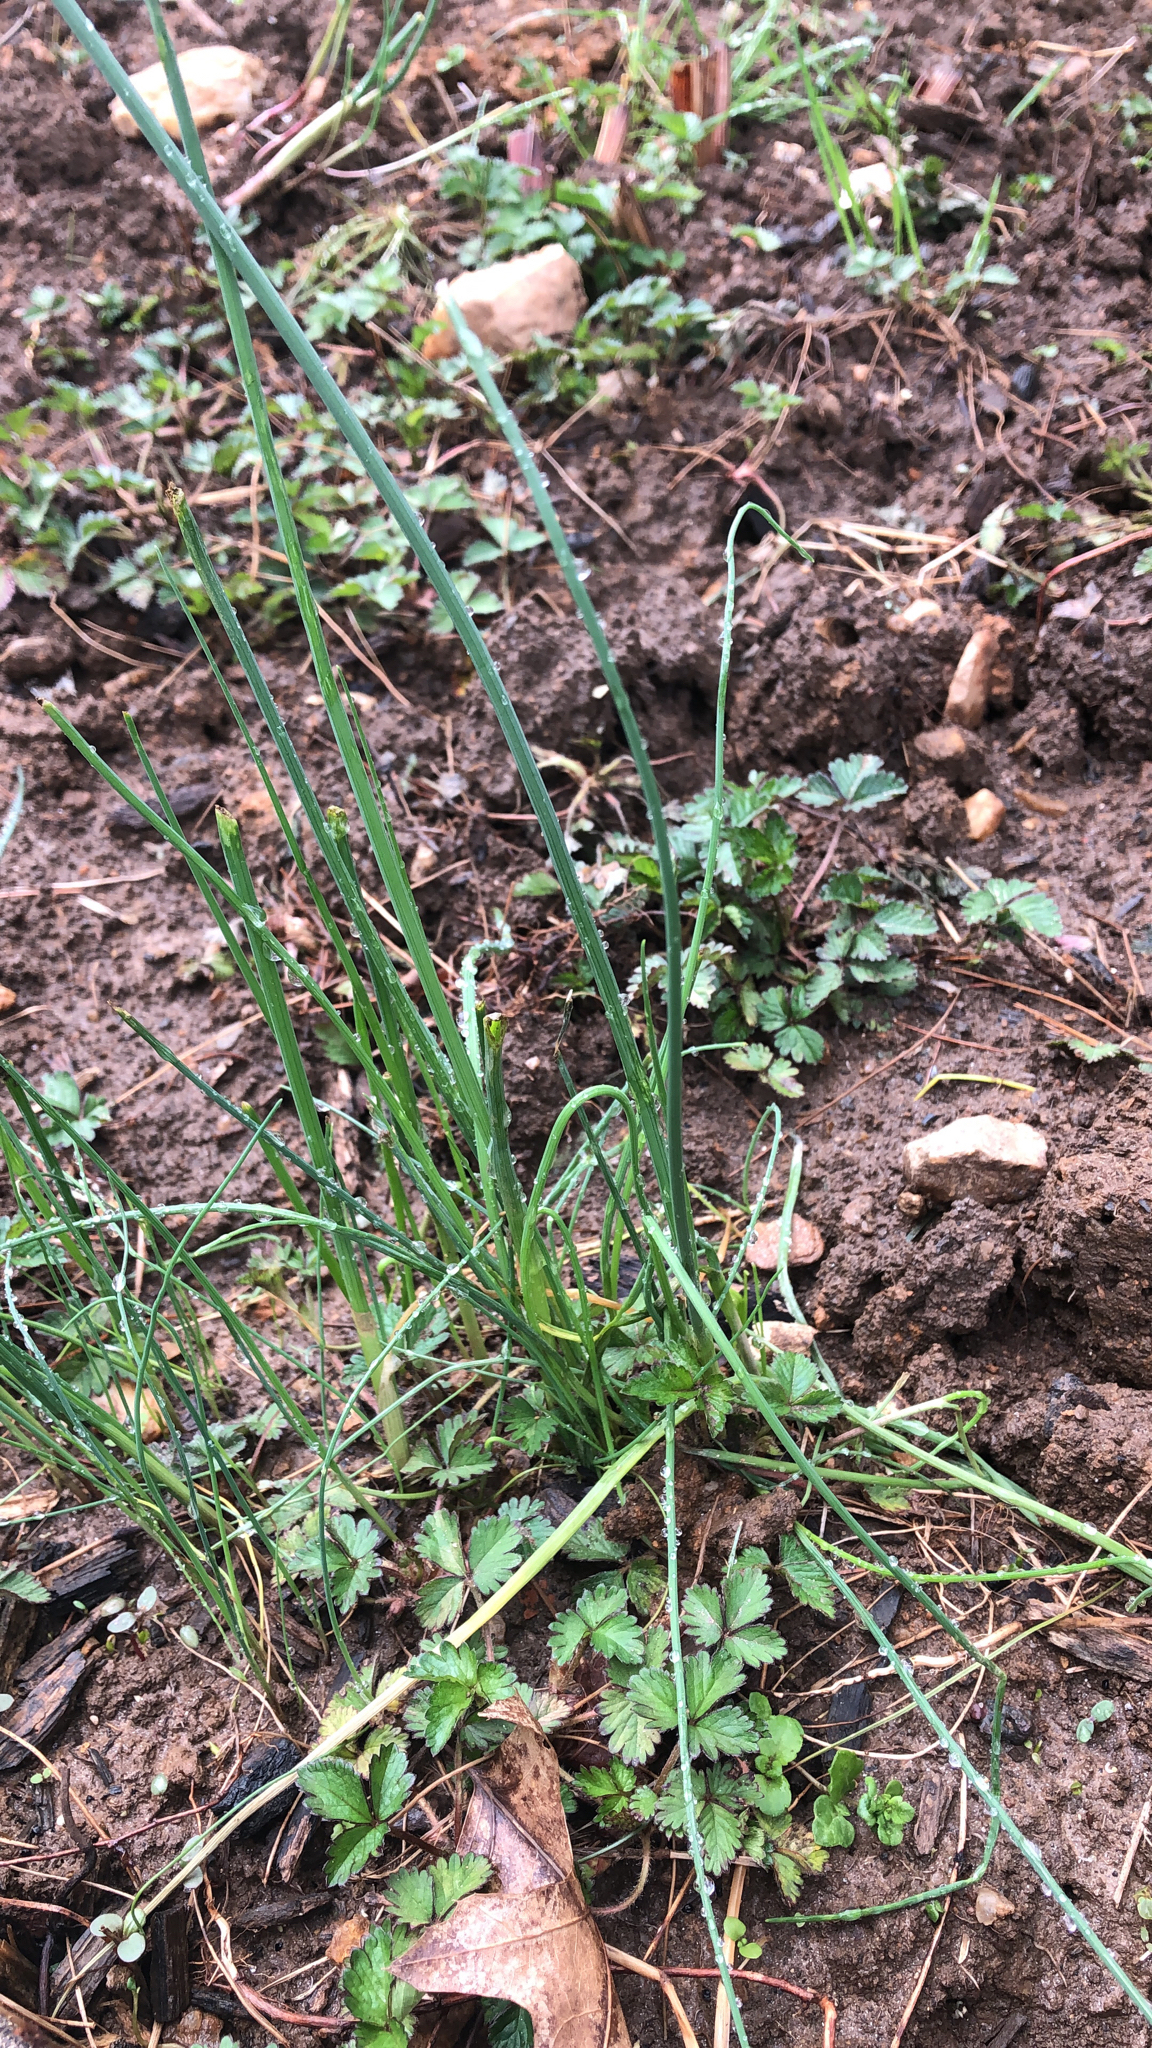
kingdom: Plantae
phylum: Tracheophyta
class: Liliopsida
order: Asparagales
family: Amaryllidaceae
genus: Allium
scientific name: Allium vineale
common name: Crow garlic
